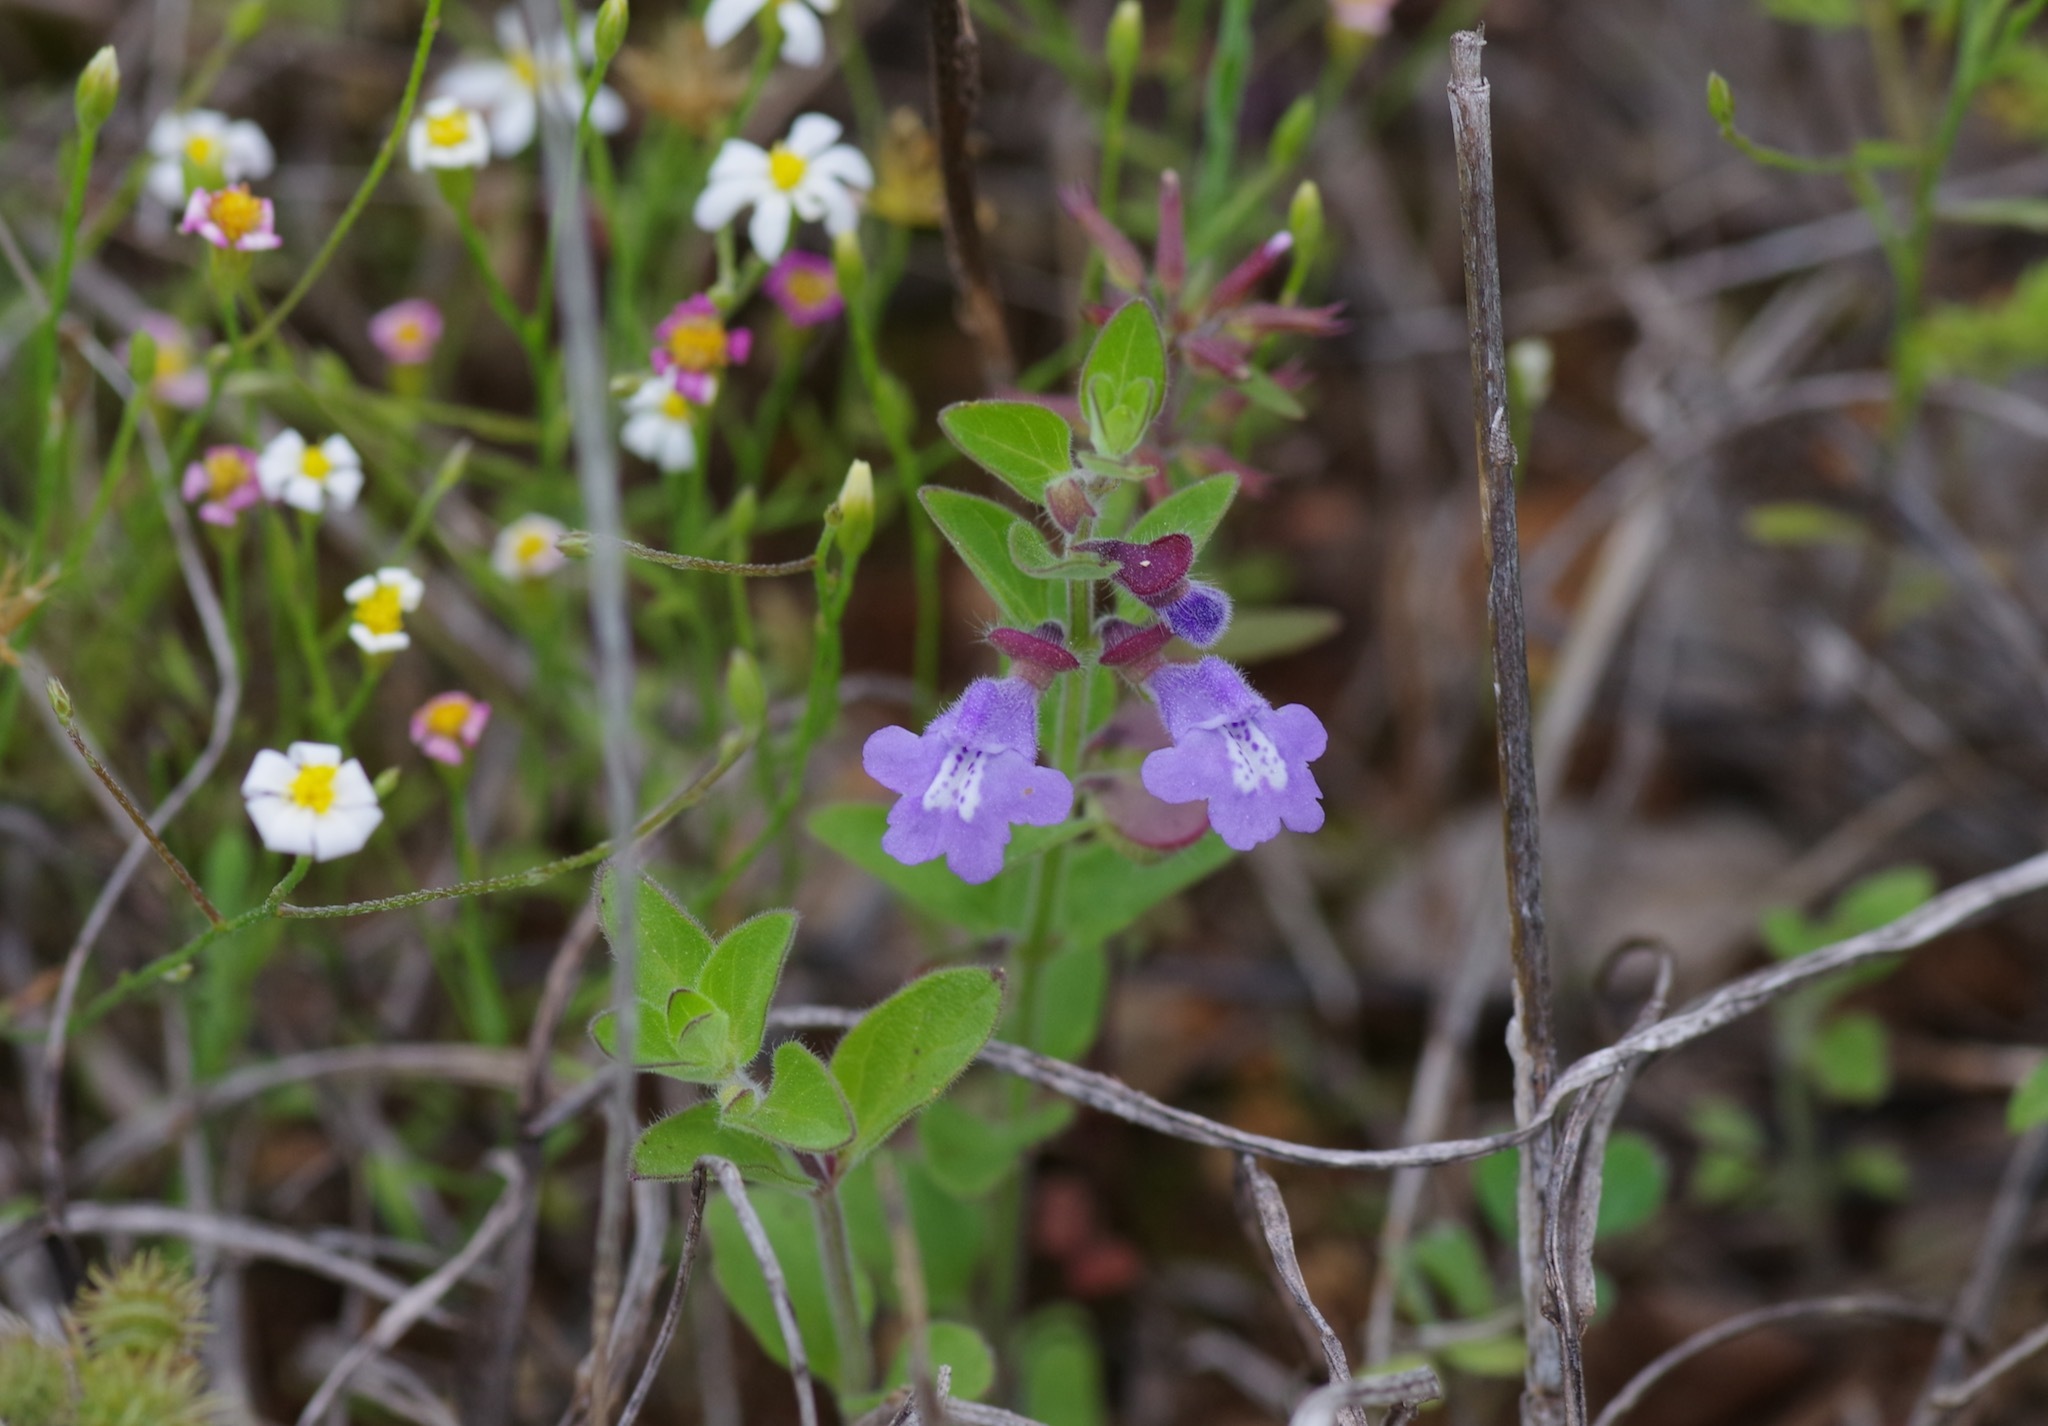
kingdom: Plantae
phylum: Tracheophyta
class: Magnoliopsida
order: Lamiales
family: Lamiaceae
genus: Scutellaria
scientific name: Scutellaria drummondii
